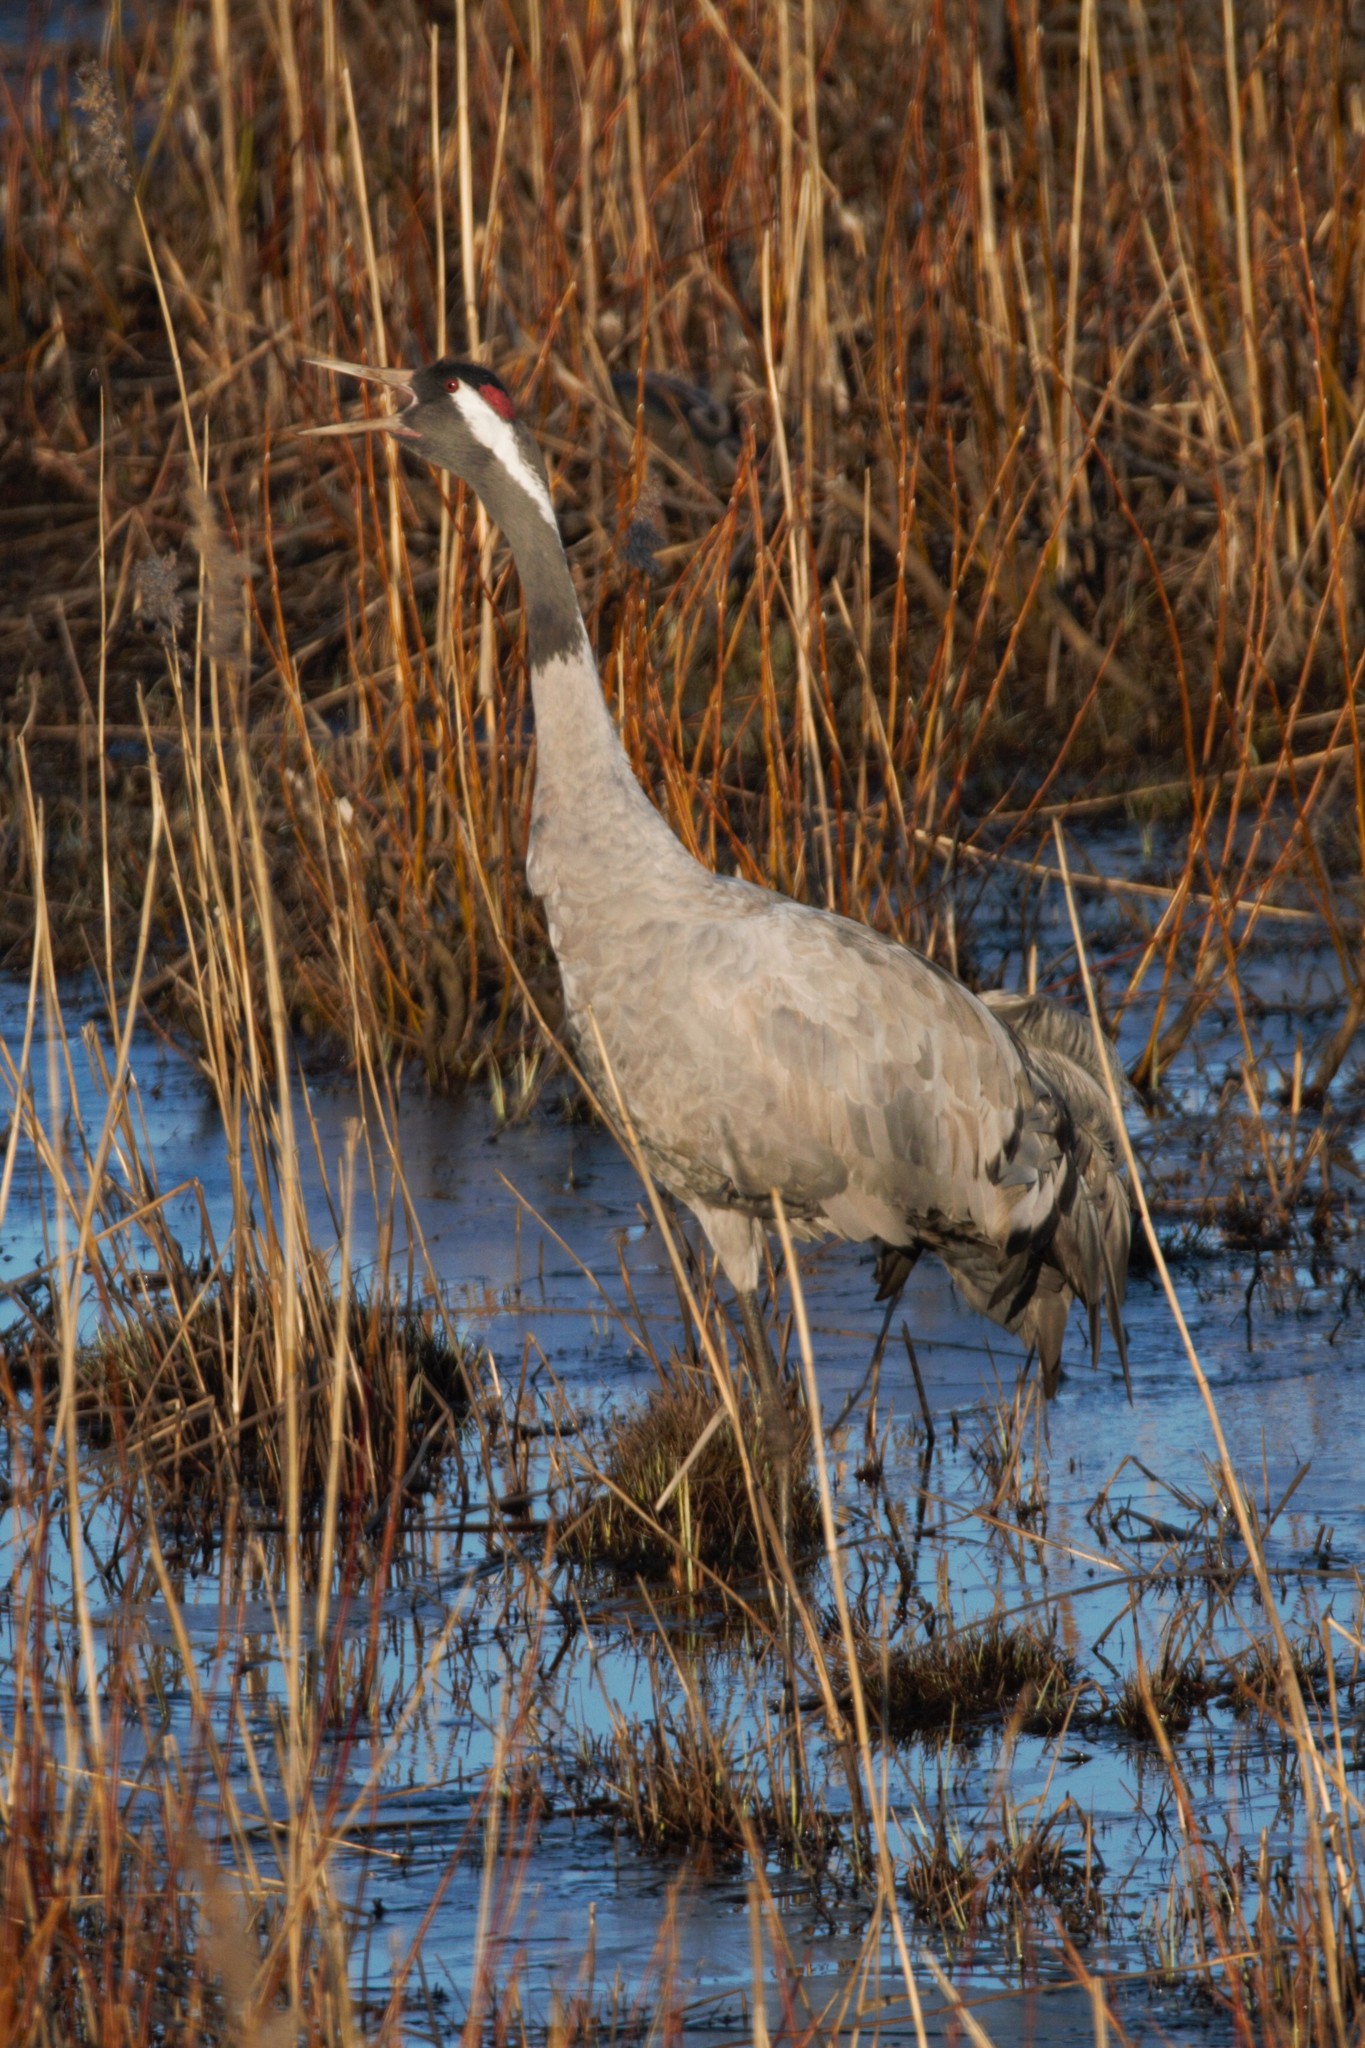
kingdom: Animalia
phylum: Chordata
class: Aves
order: Gruiformes
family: Gruidae
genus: Grus
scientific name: Grus grus
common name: Common crane
